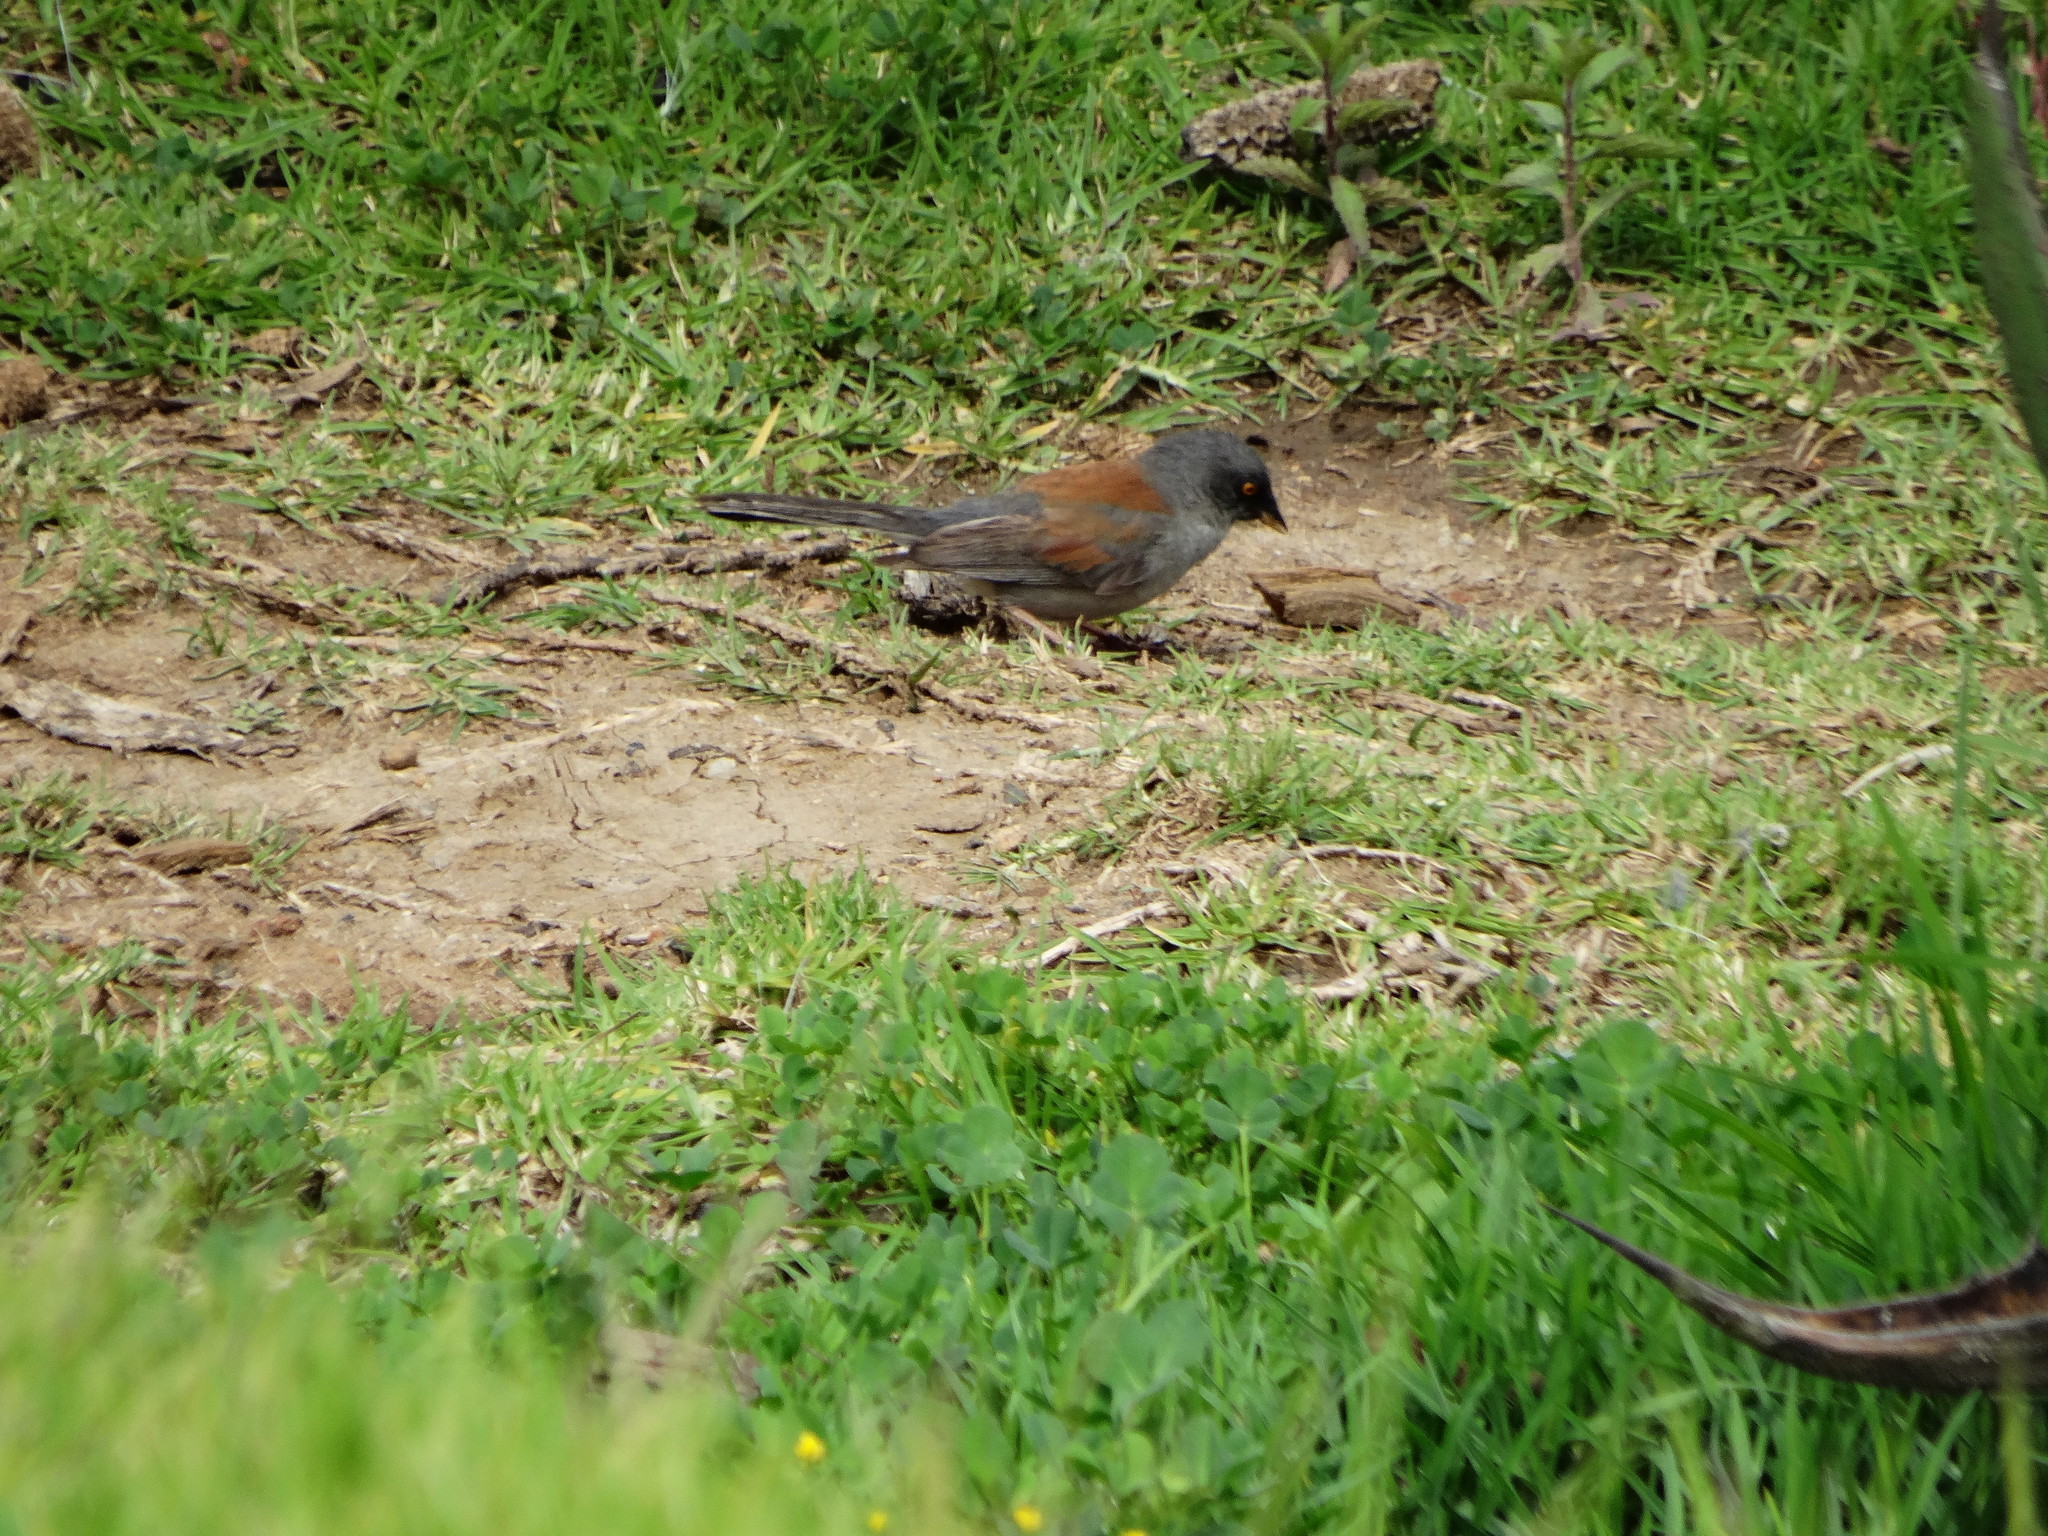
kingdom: Animalia
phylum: Chordata
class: Aves
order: Passeriformes
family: Passerellidae
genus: Junco
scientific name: Junco phaeonotus
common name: Yellow-eyed junco
